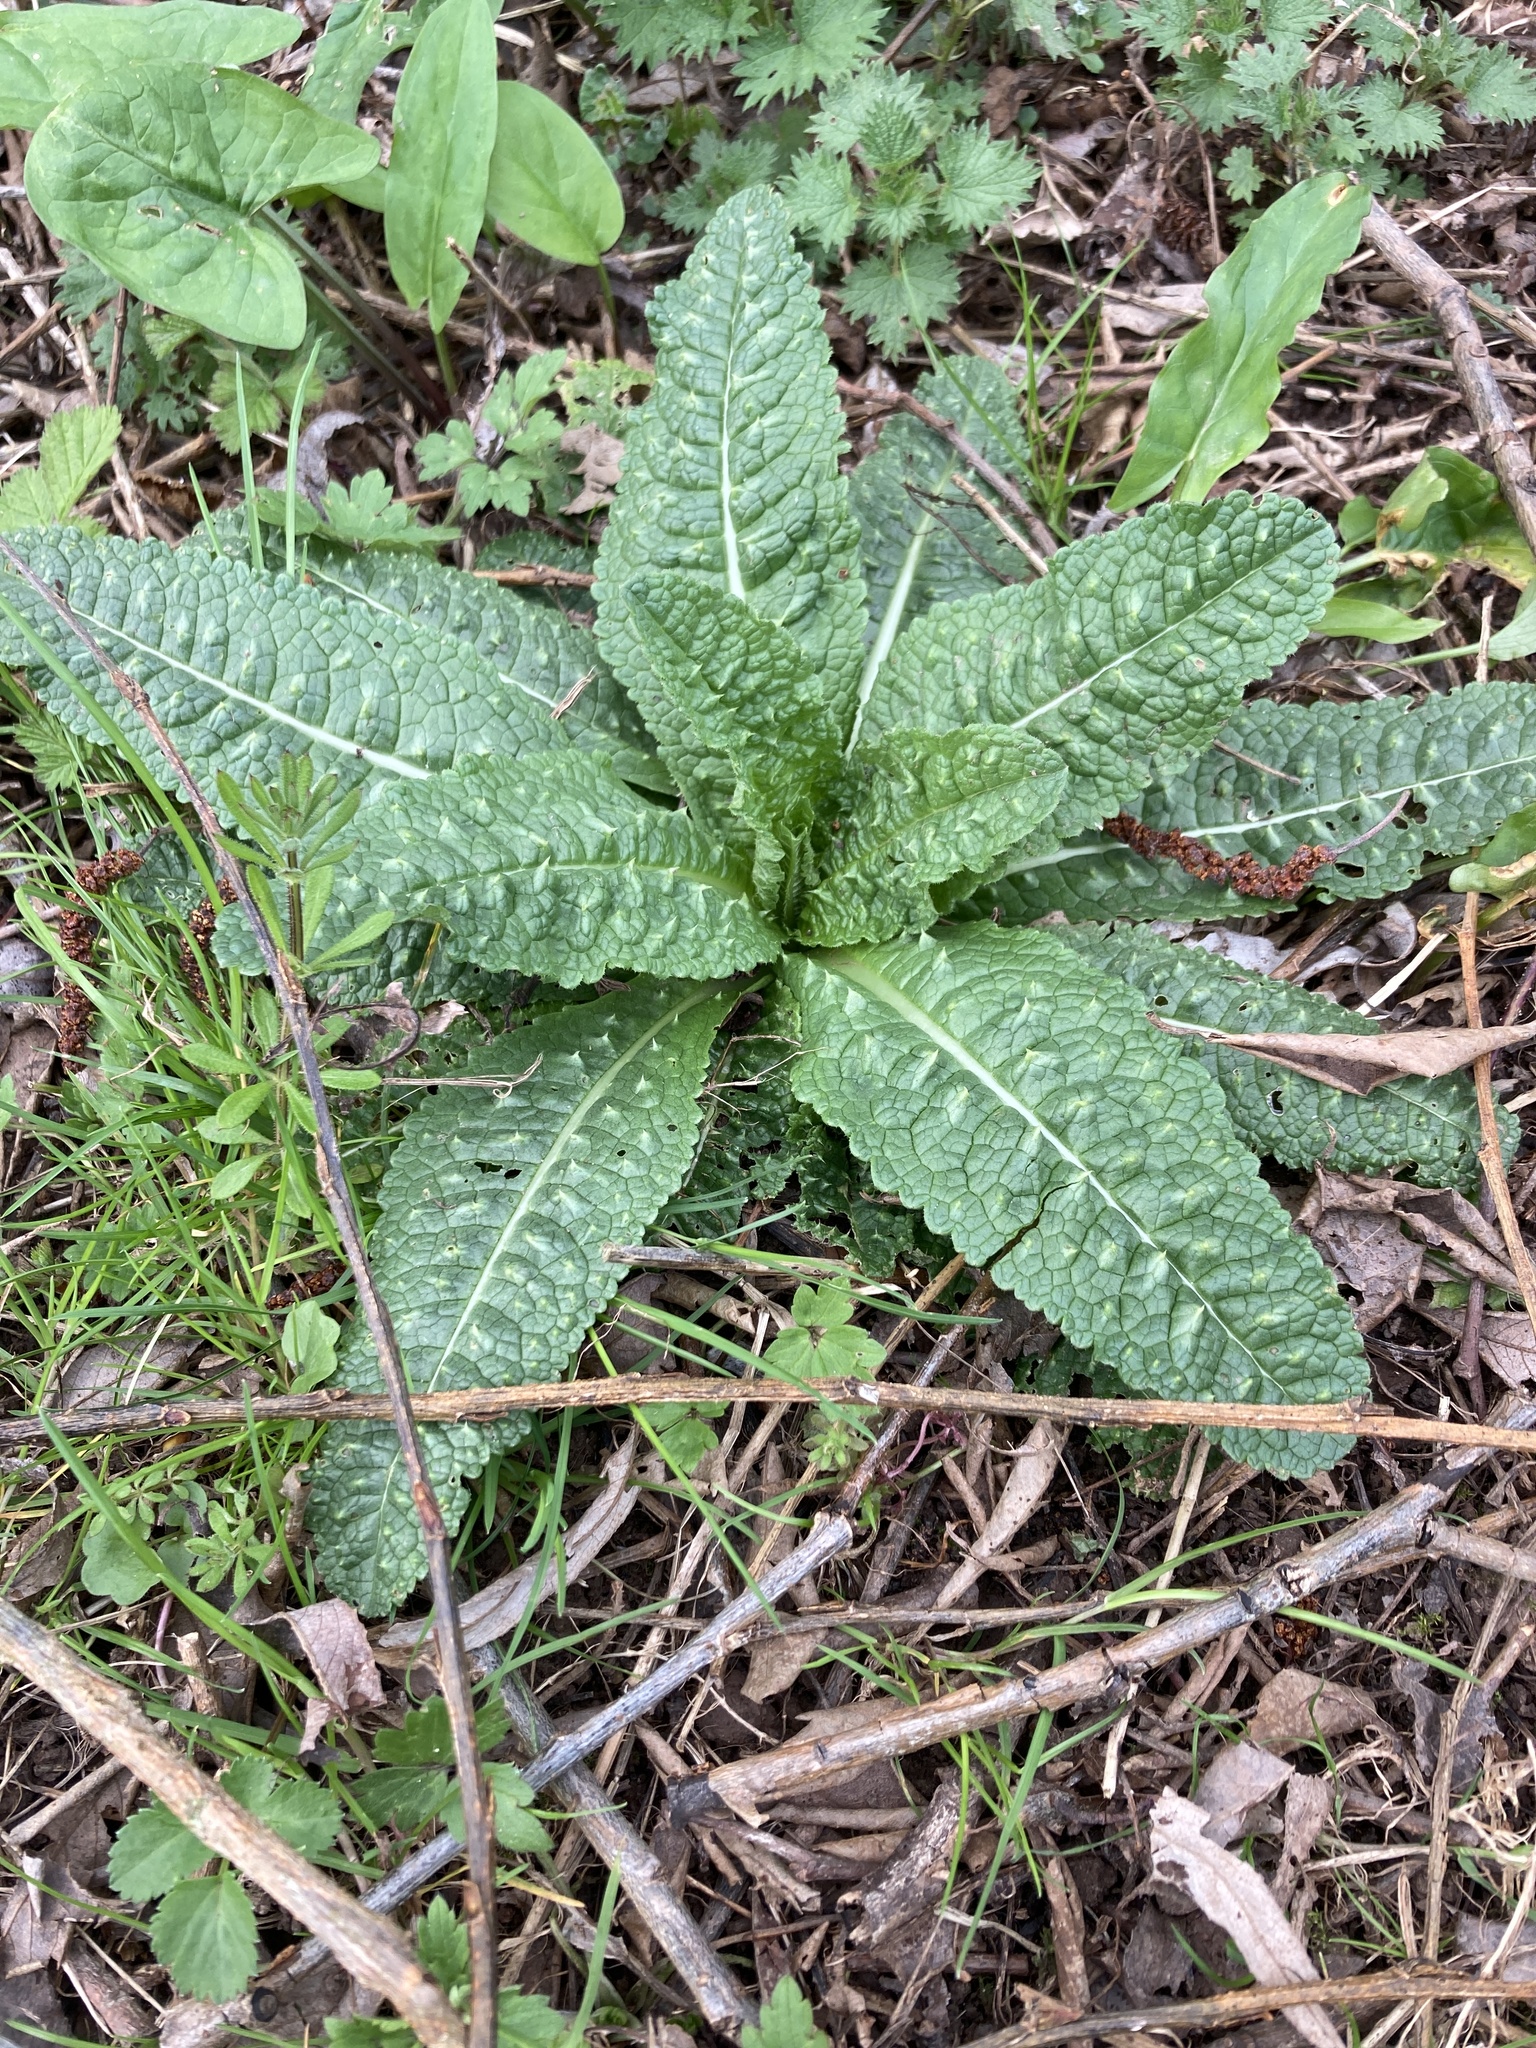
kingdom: Plantae
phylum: Tracheophyta
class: Magnoliopsida
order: Dipsacales
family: Caprifoliaceae
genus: Dipsacus
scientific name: Dipsacus fullonum
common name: Teasel
